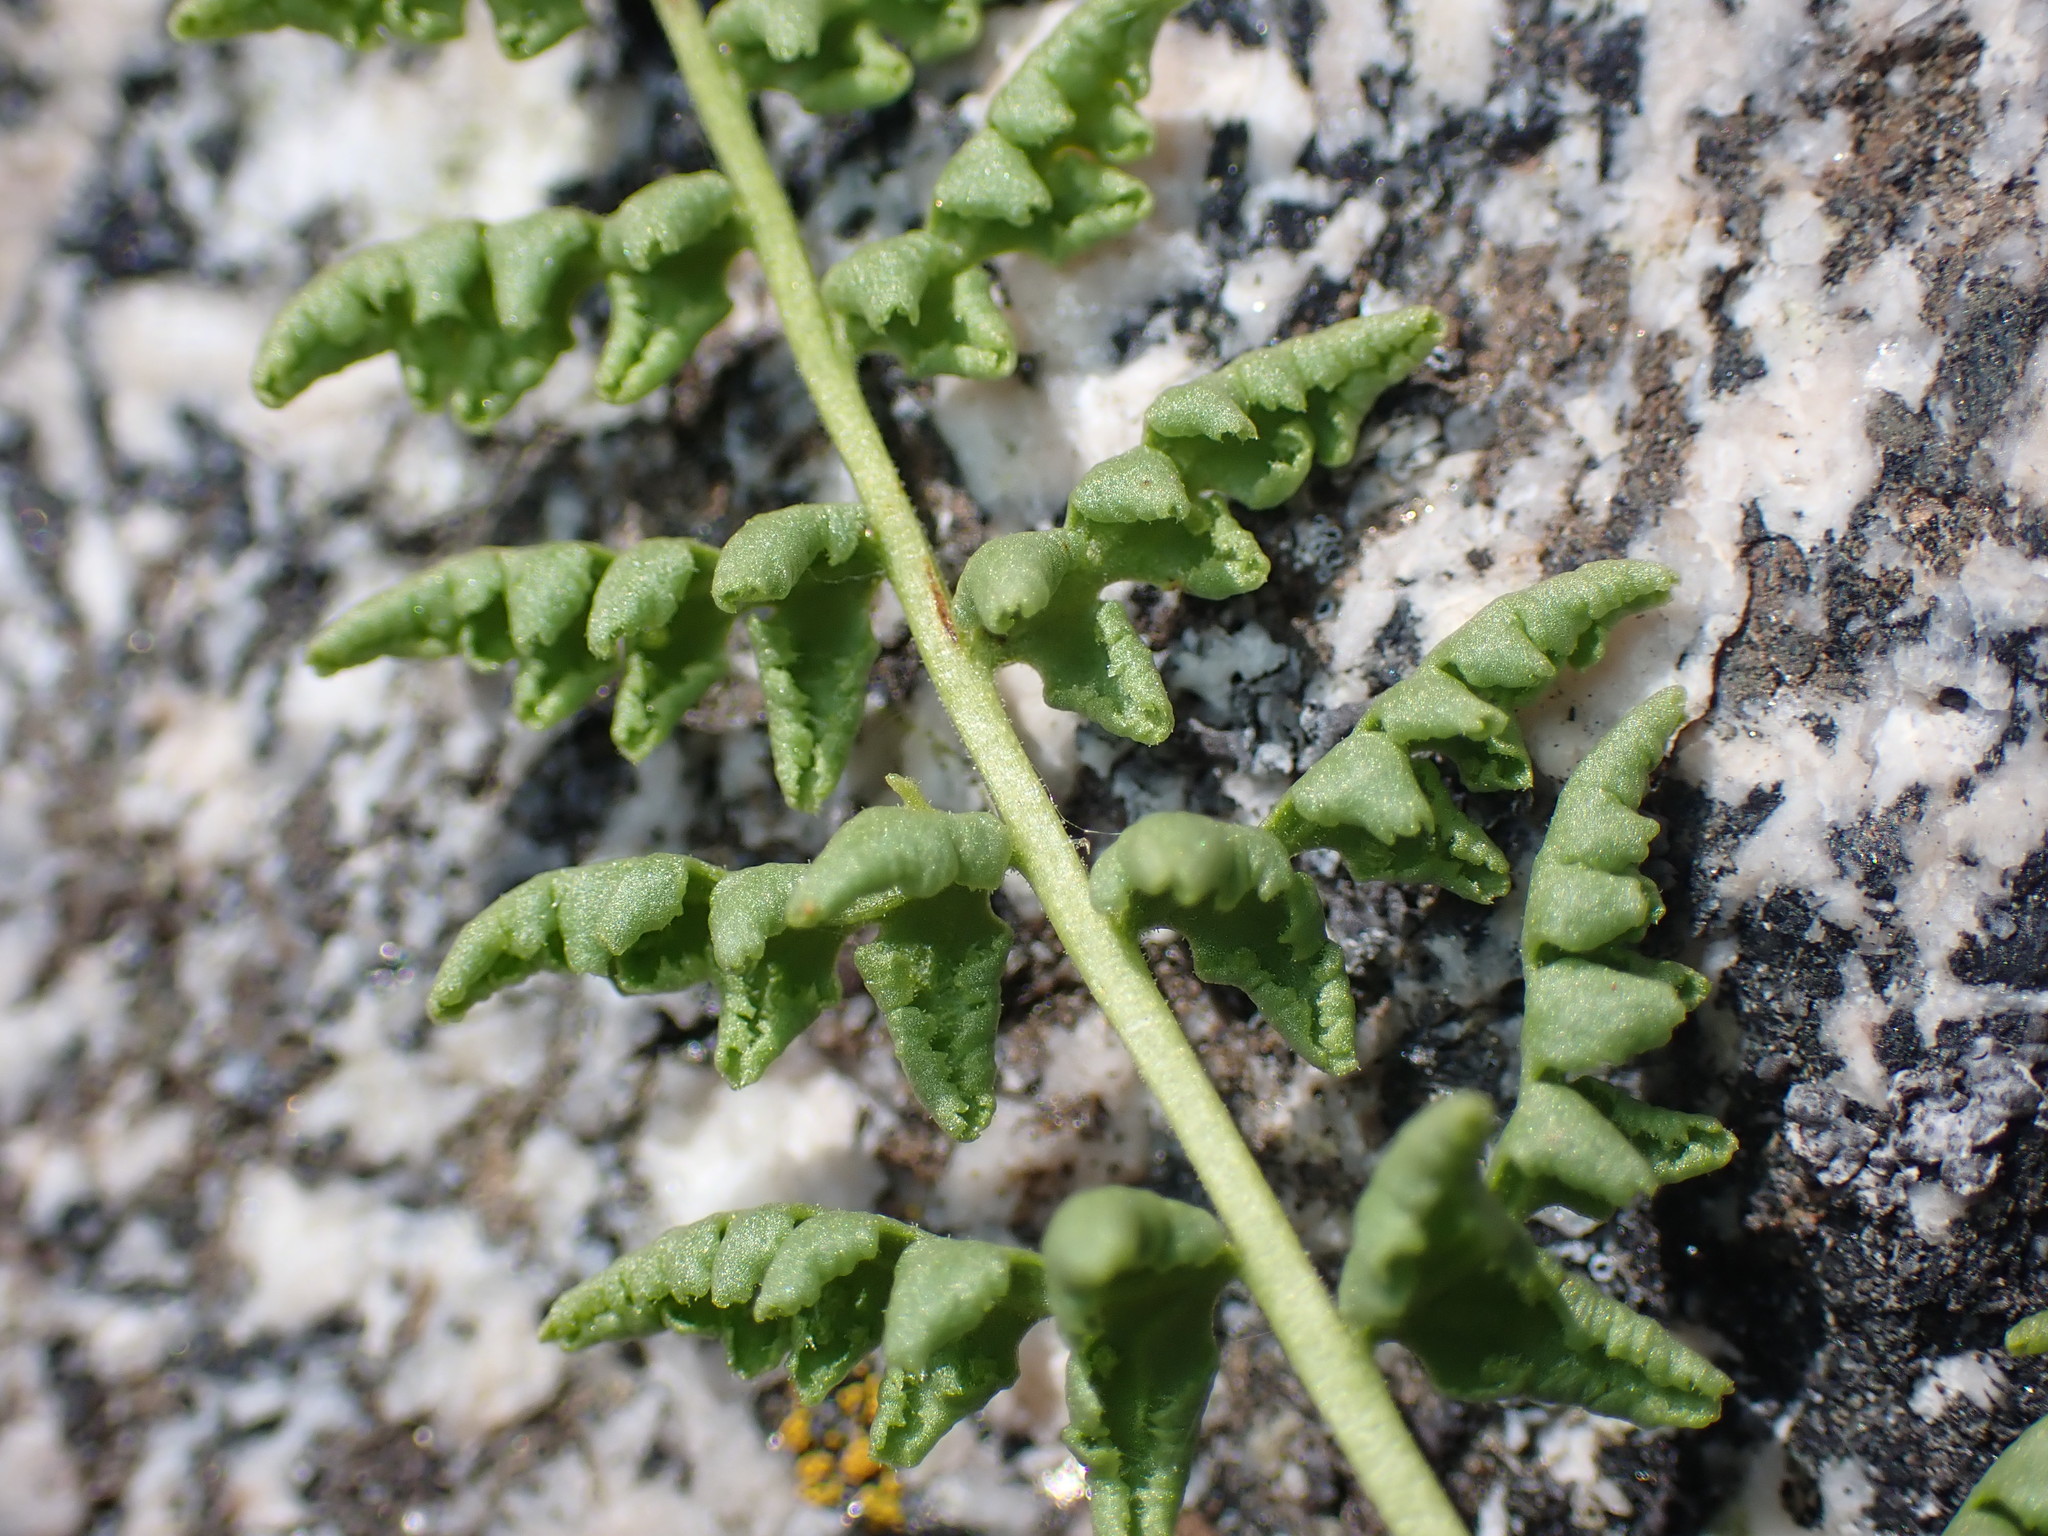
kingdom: Plantae
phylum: Tracheophyta
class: Polypodiopsida
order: Polypodiales
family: Woodsiaceae
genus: Physematium
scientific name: Physematium oreganum
